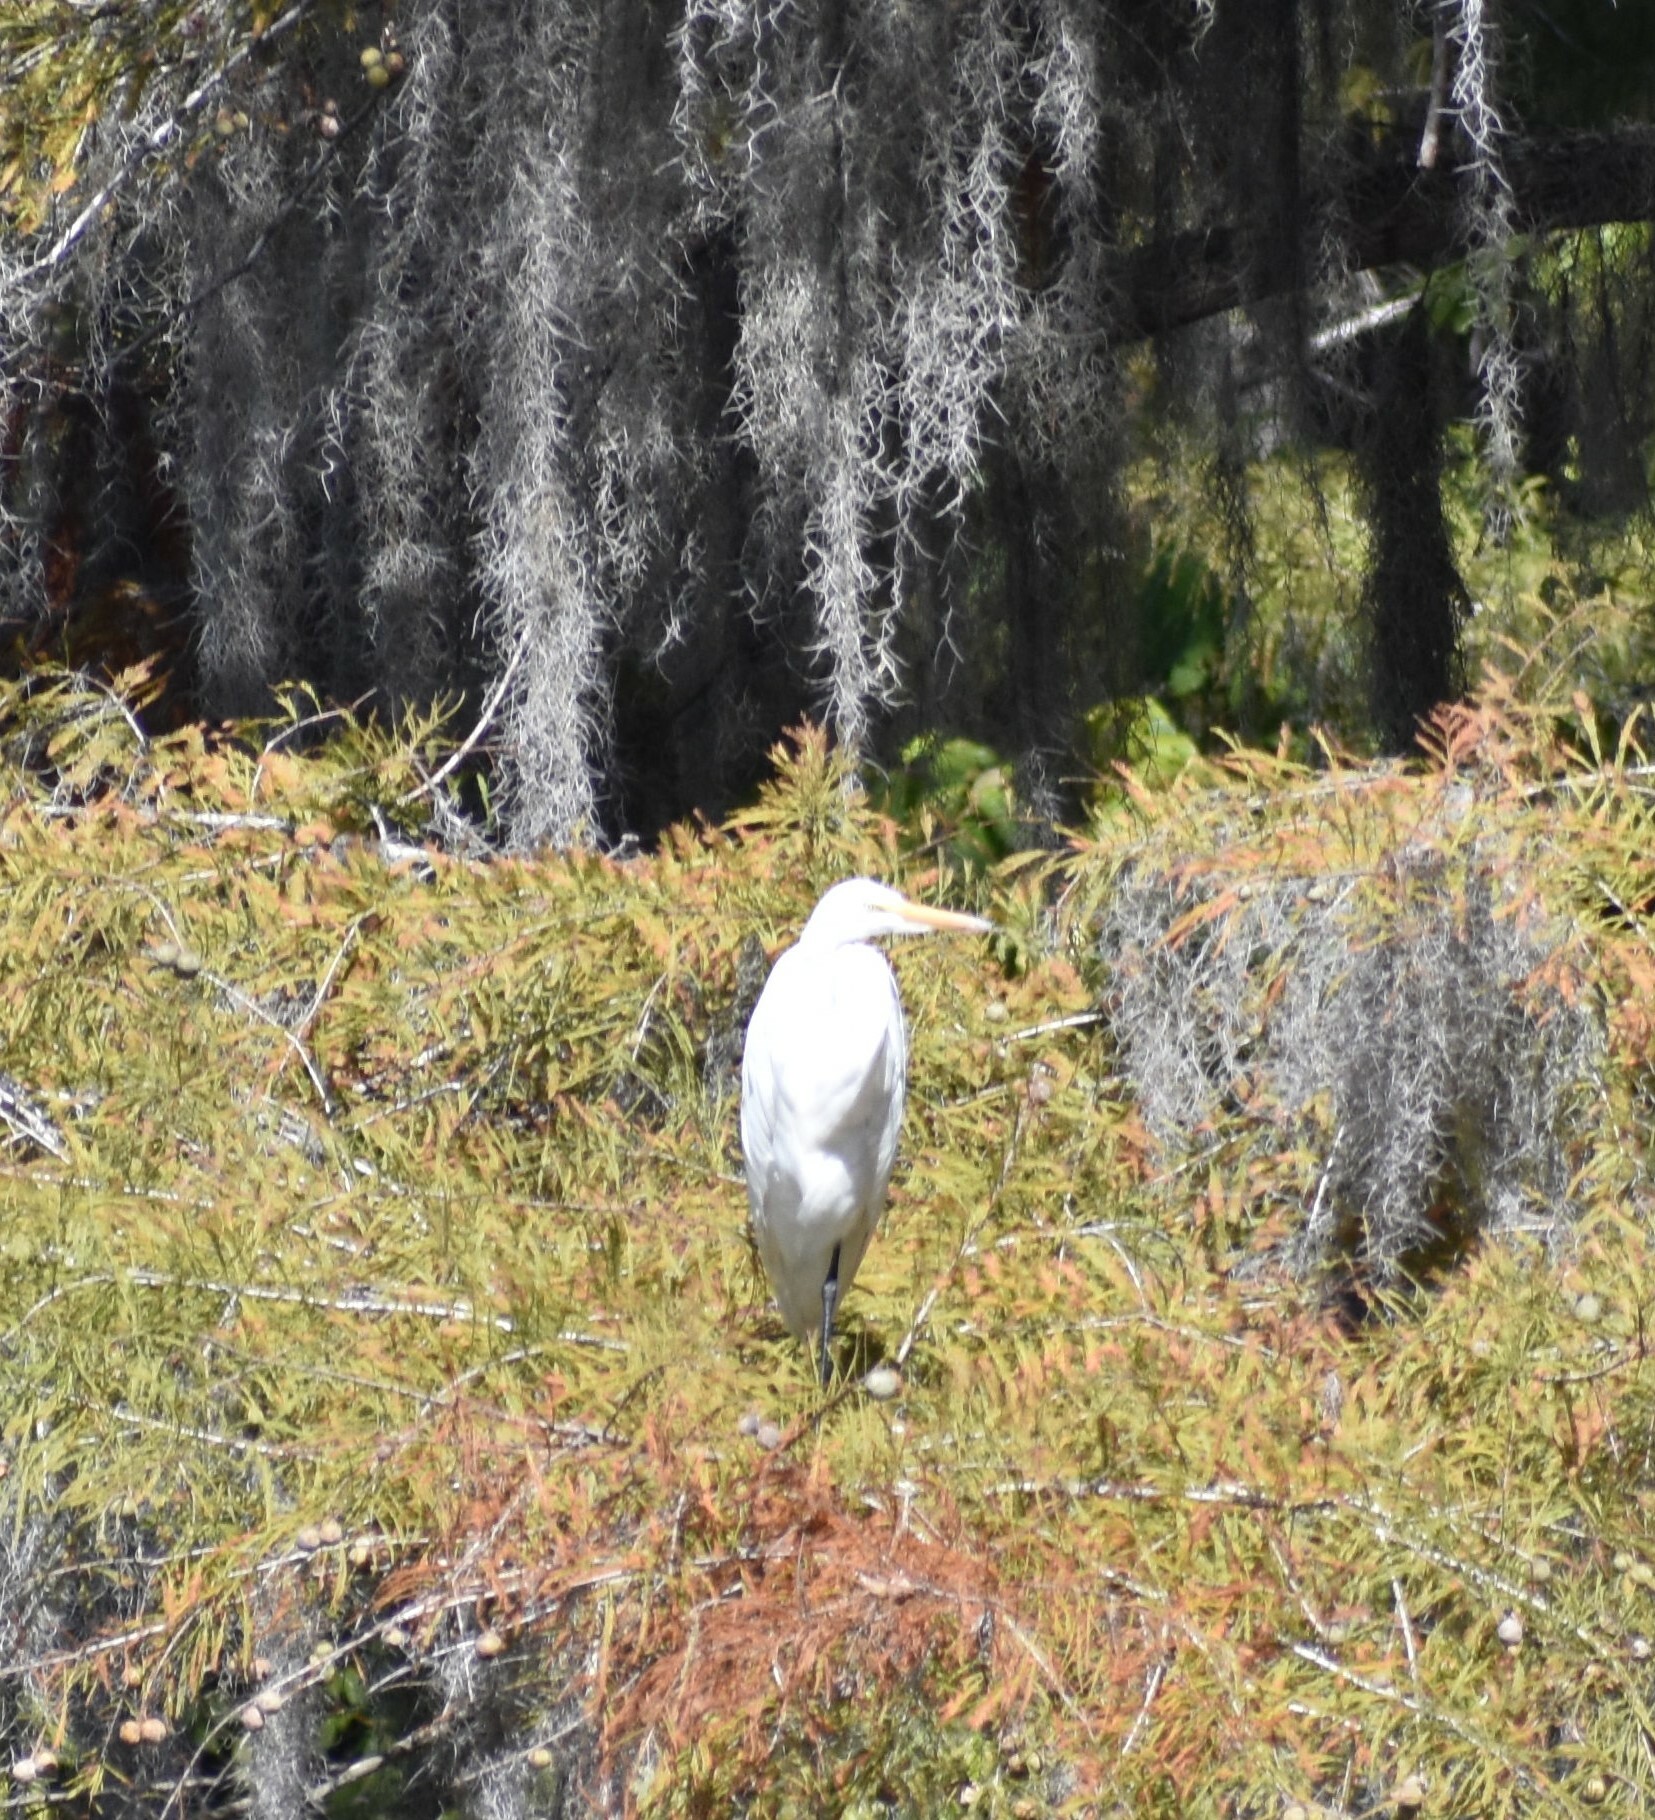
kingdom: Animalia
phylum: Chordata
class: Aves
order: Pelecaniformes
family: Ardeidae
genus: Ardea
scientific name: Ardea alba
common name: Great egret
